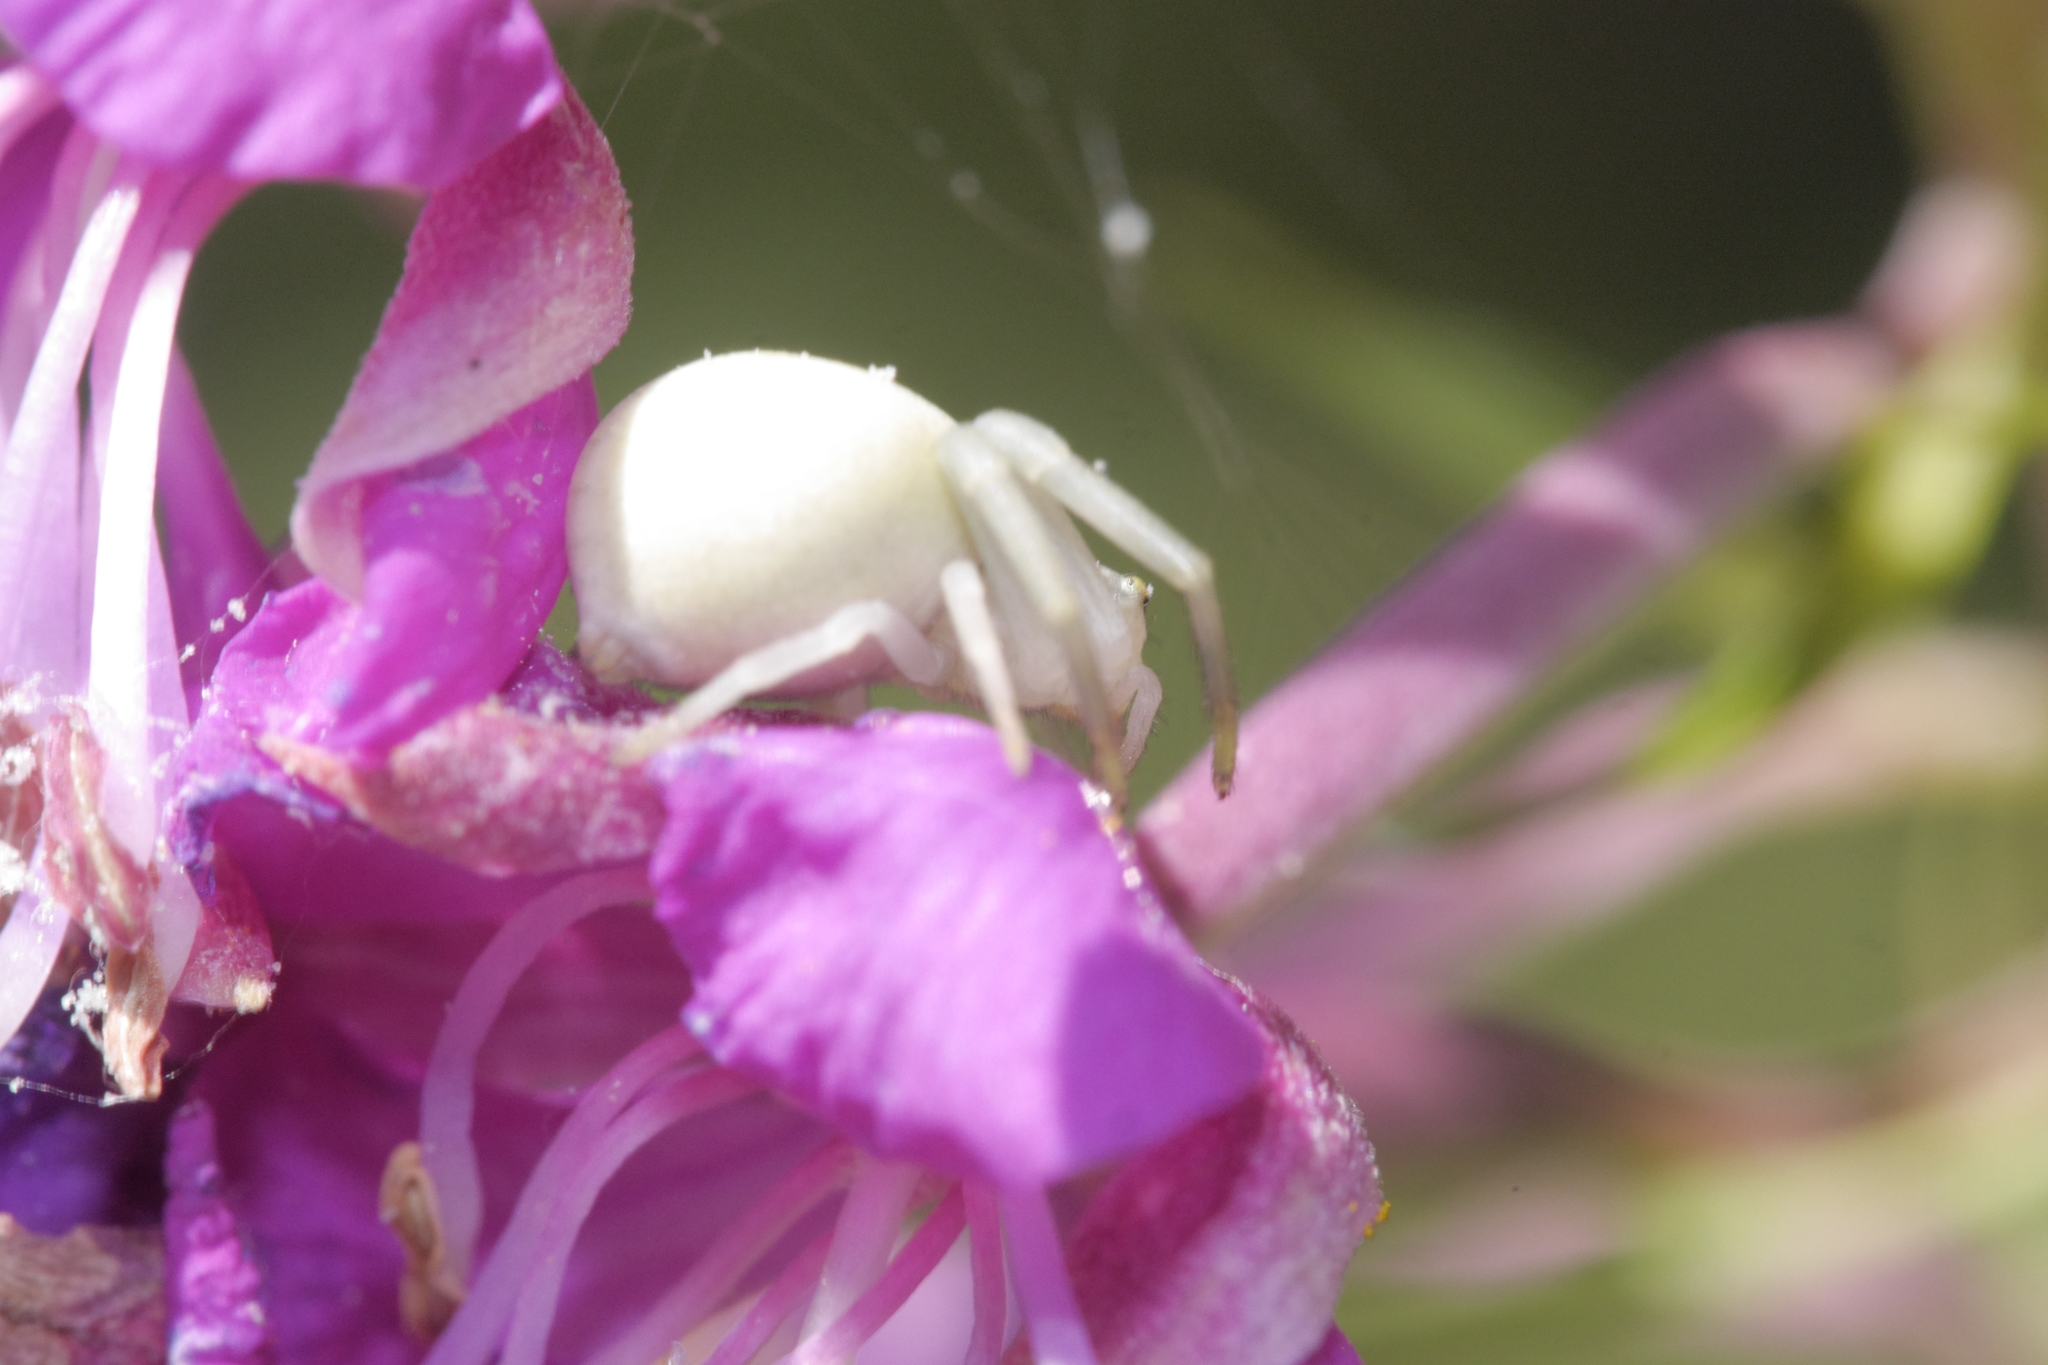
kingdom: Animalia
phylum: Arthropoda
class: Arachnida
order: Araneae
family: Thomisidae
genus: Misumena
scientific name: Misumena vatia
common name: Goldenrod crab spider
